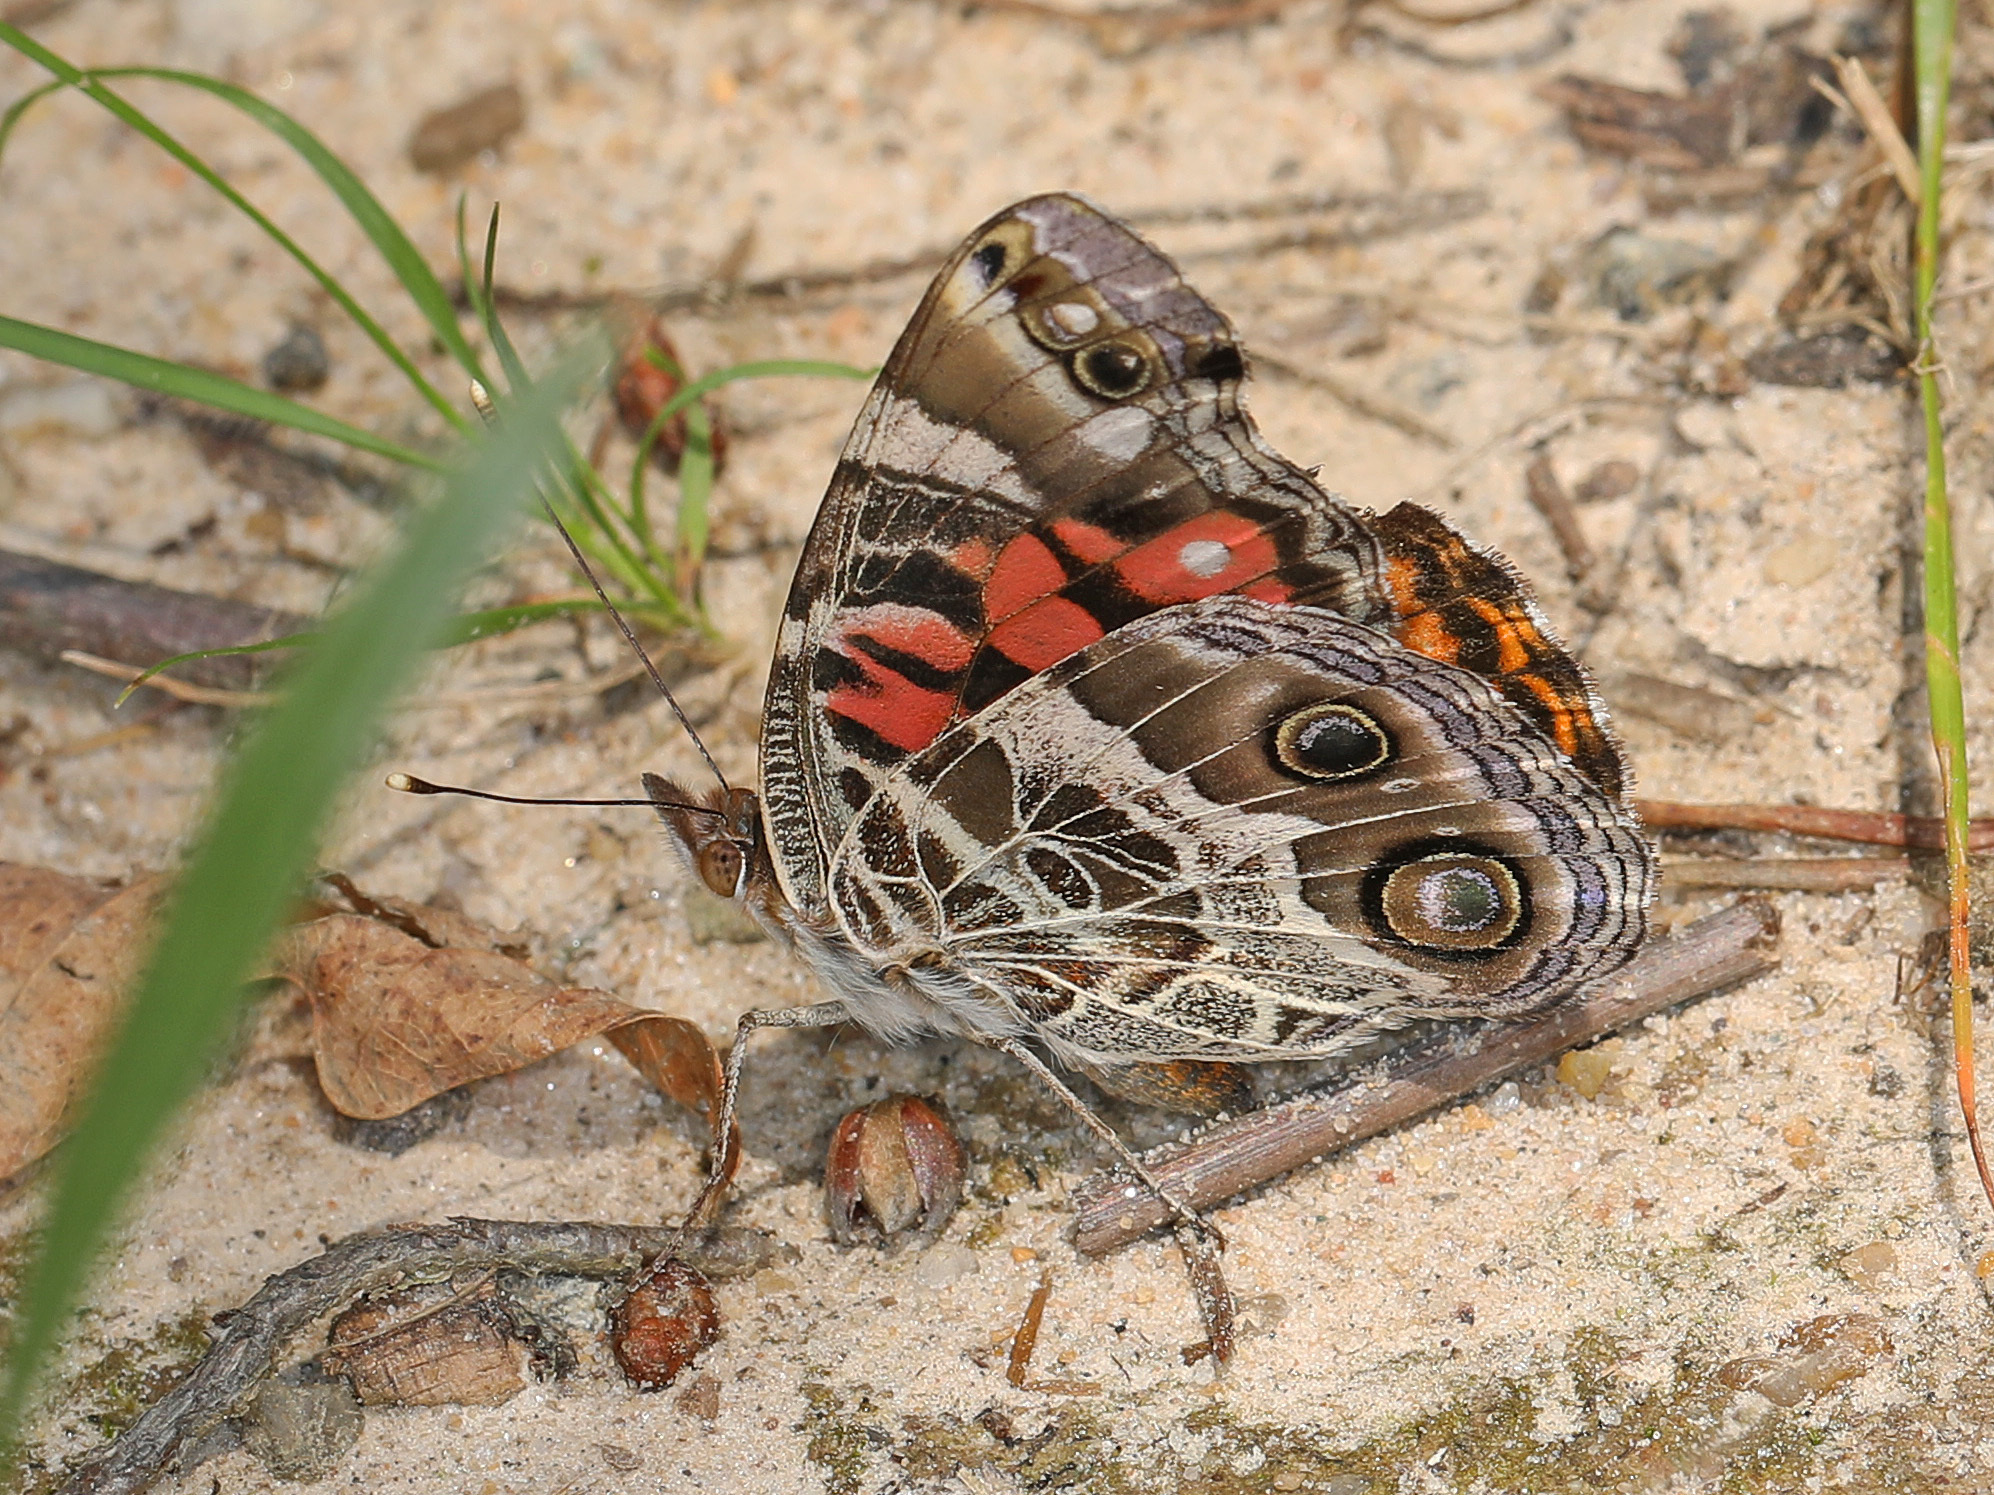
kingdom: Animalia
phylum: Arthropoda
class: Insecta
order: Lepidoptera
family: Nymphalidae
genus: Vanessa
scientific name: Vanessa virginiensis
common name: American lady
